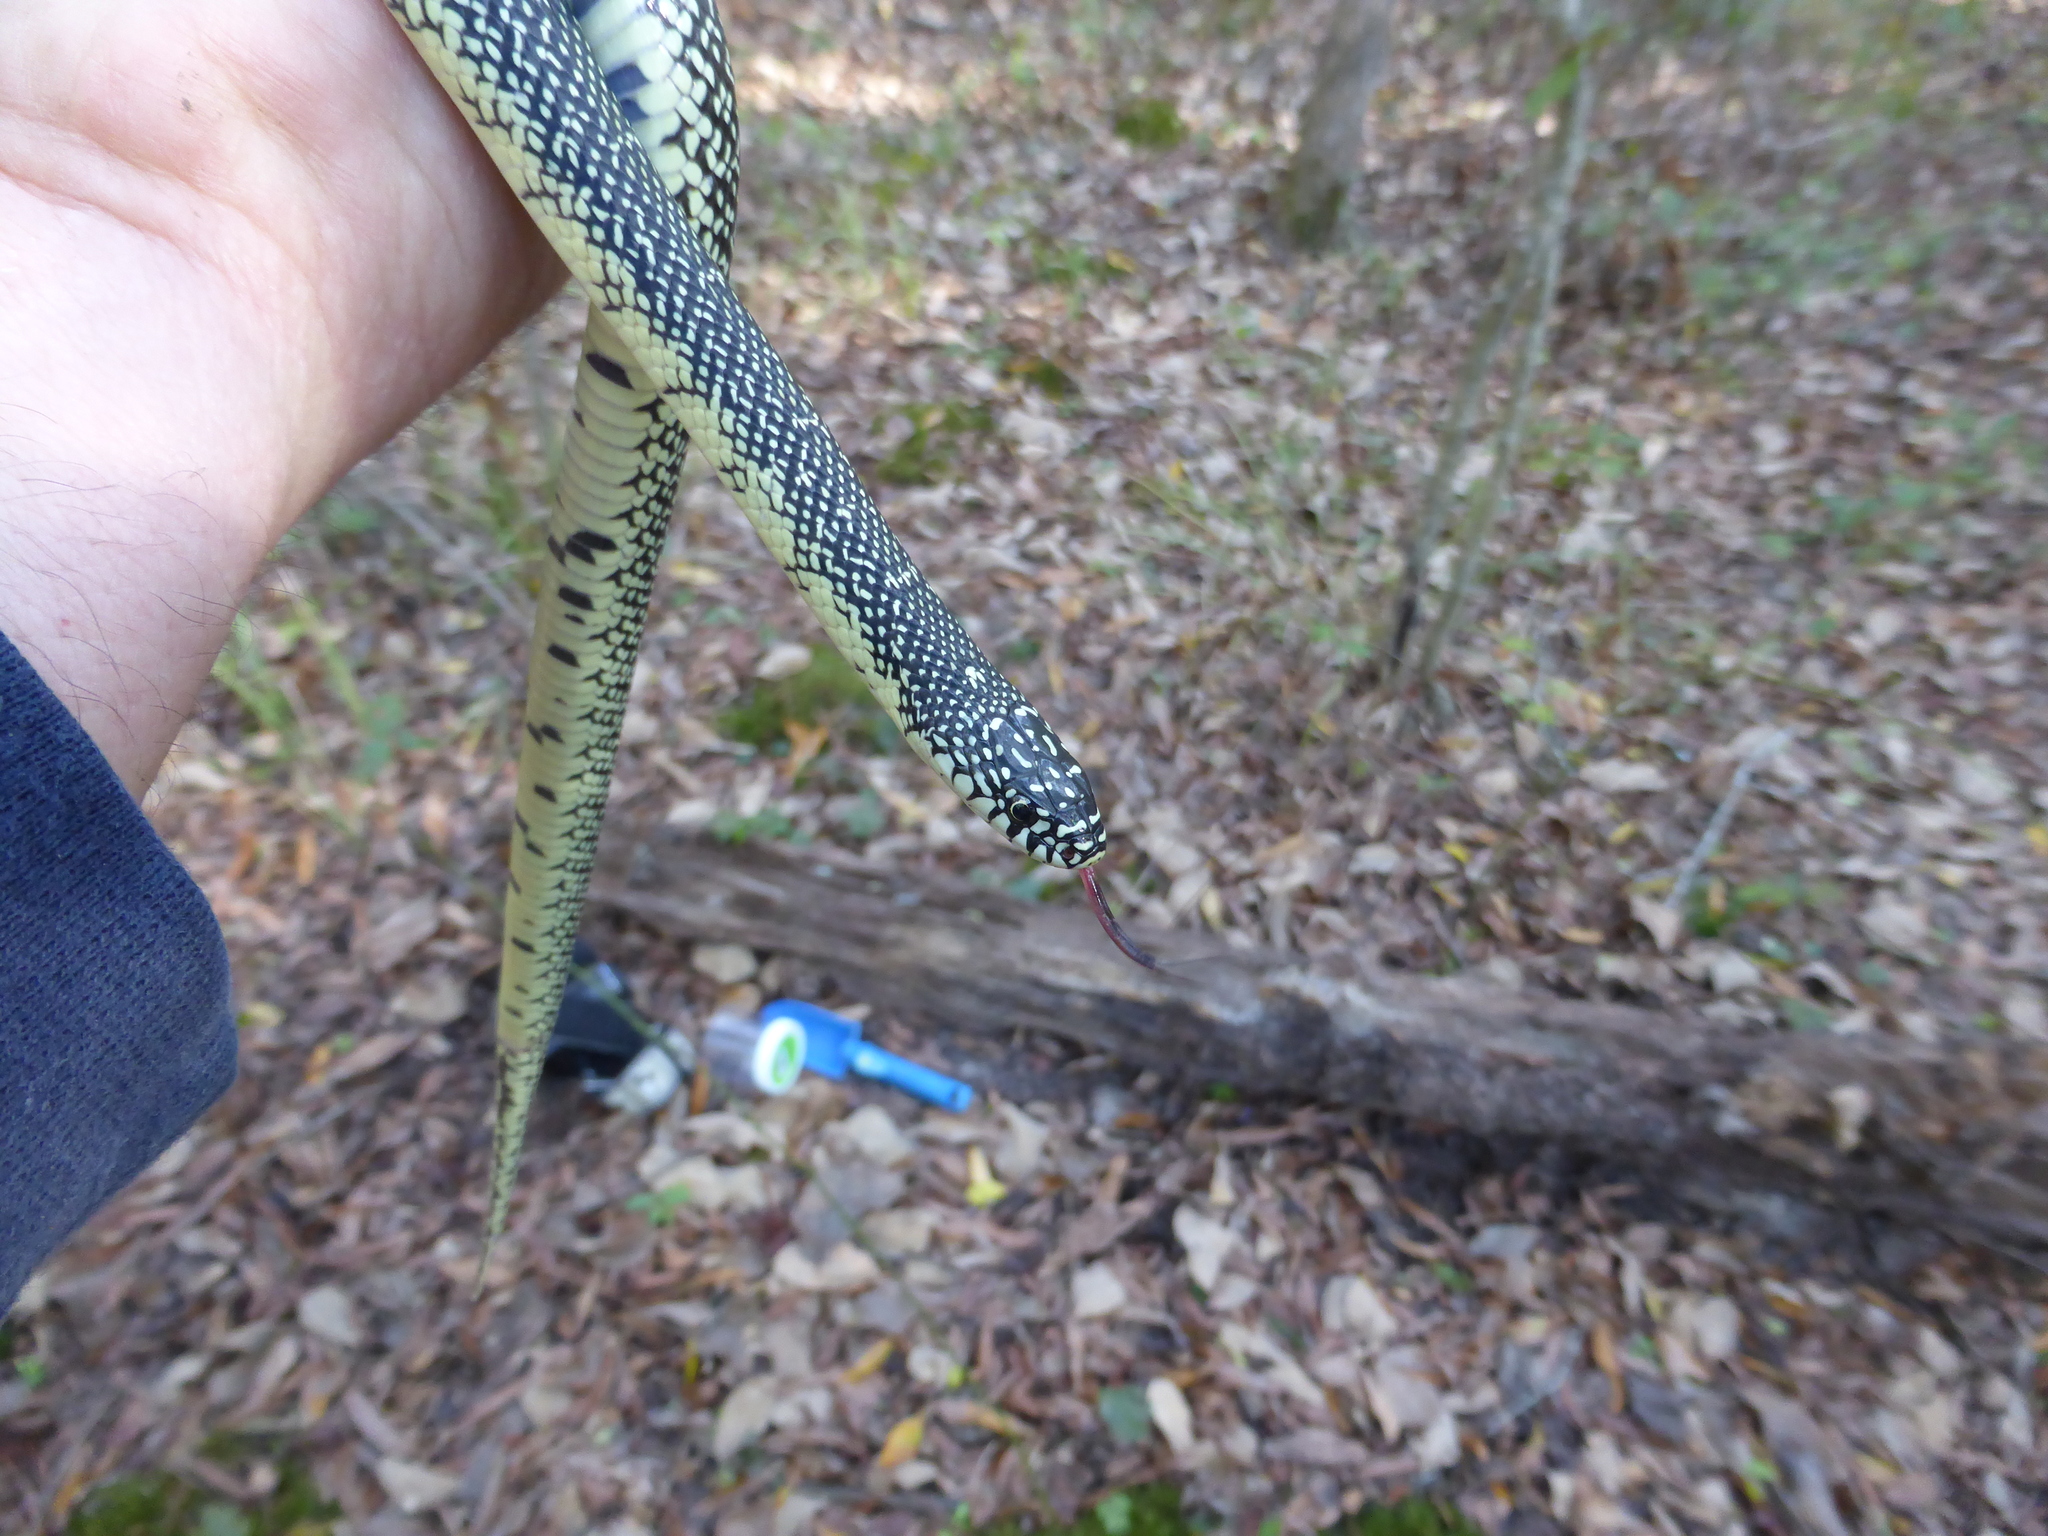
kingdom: Animalia
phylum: Chordata
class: Squamata
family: Colubridae
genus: Lampropeltis
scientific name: Lampropeltis holbrooki
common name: Speckled kingsnake
